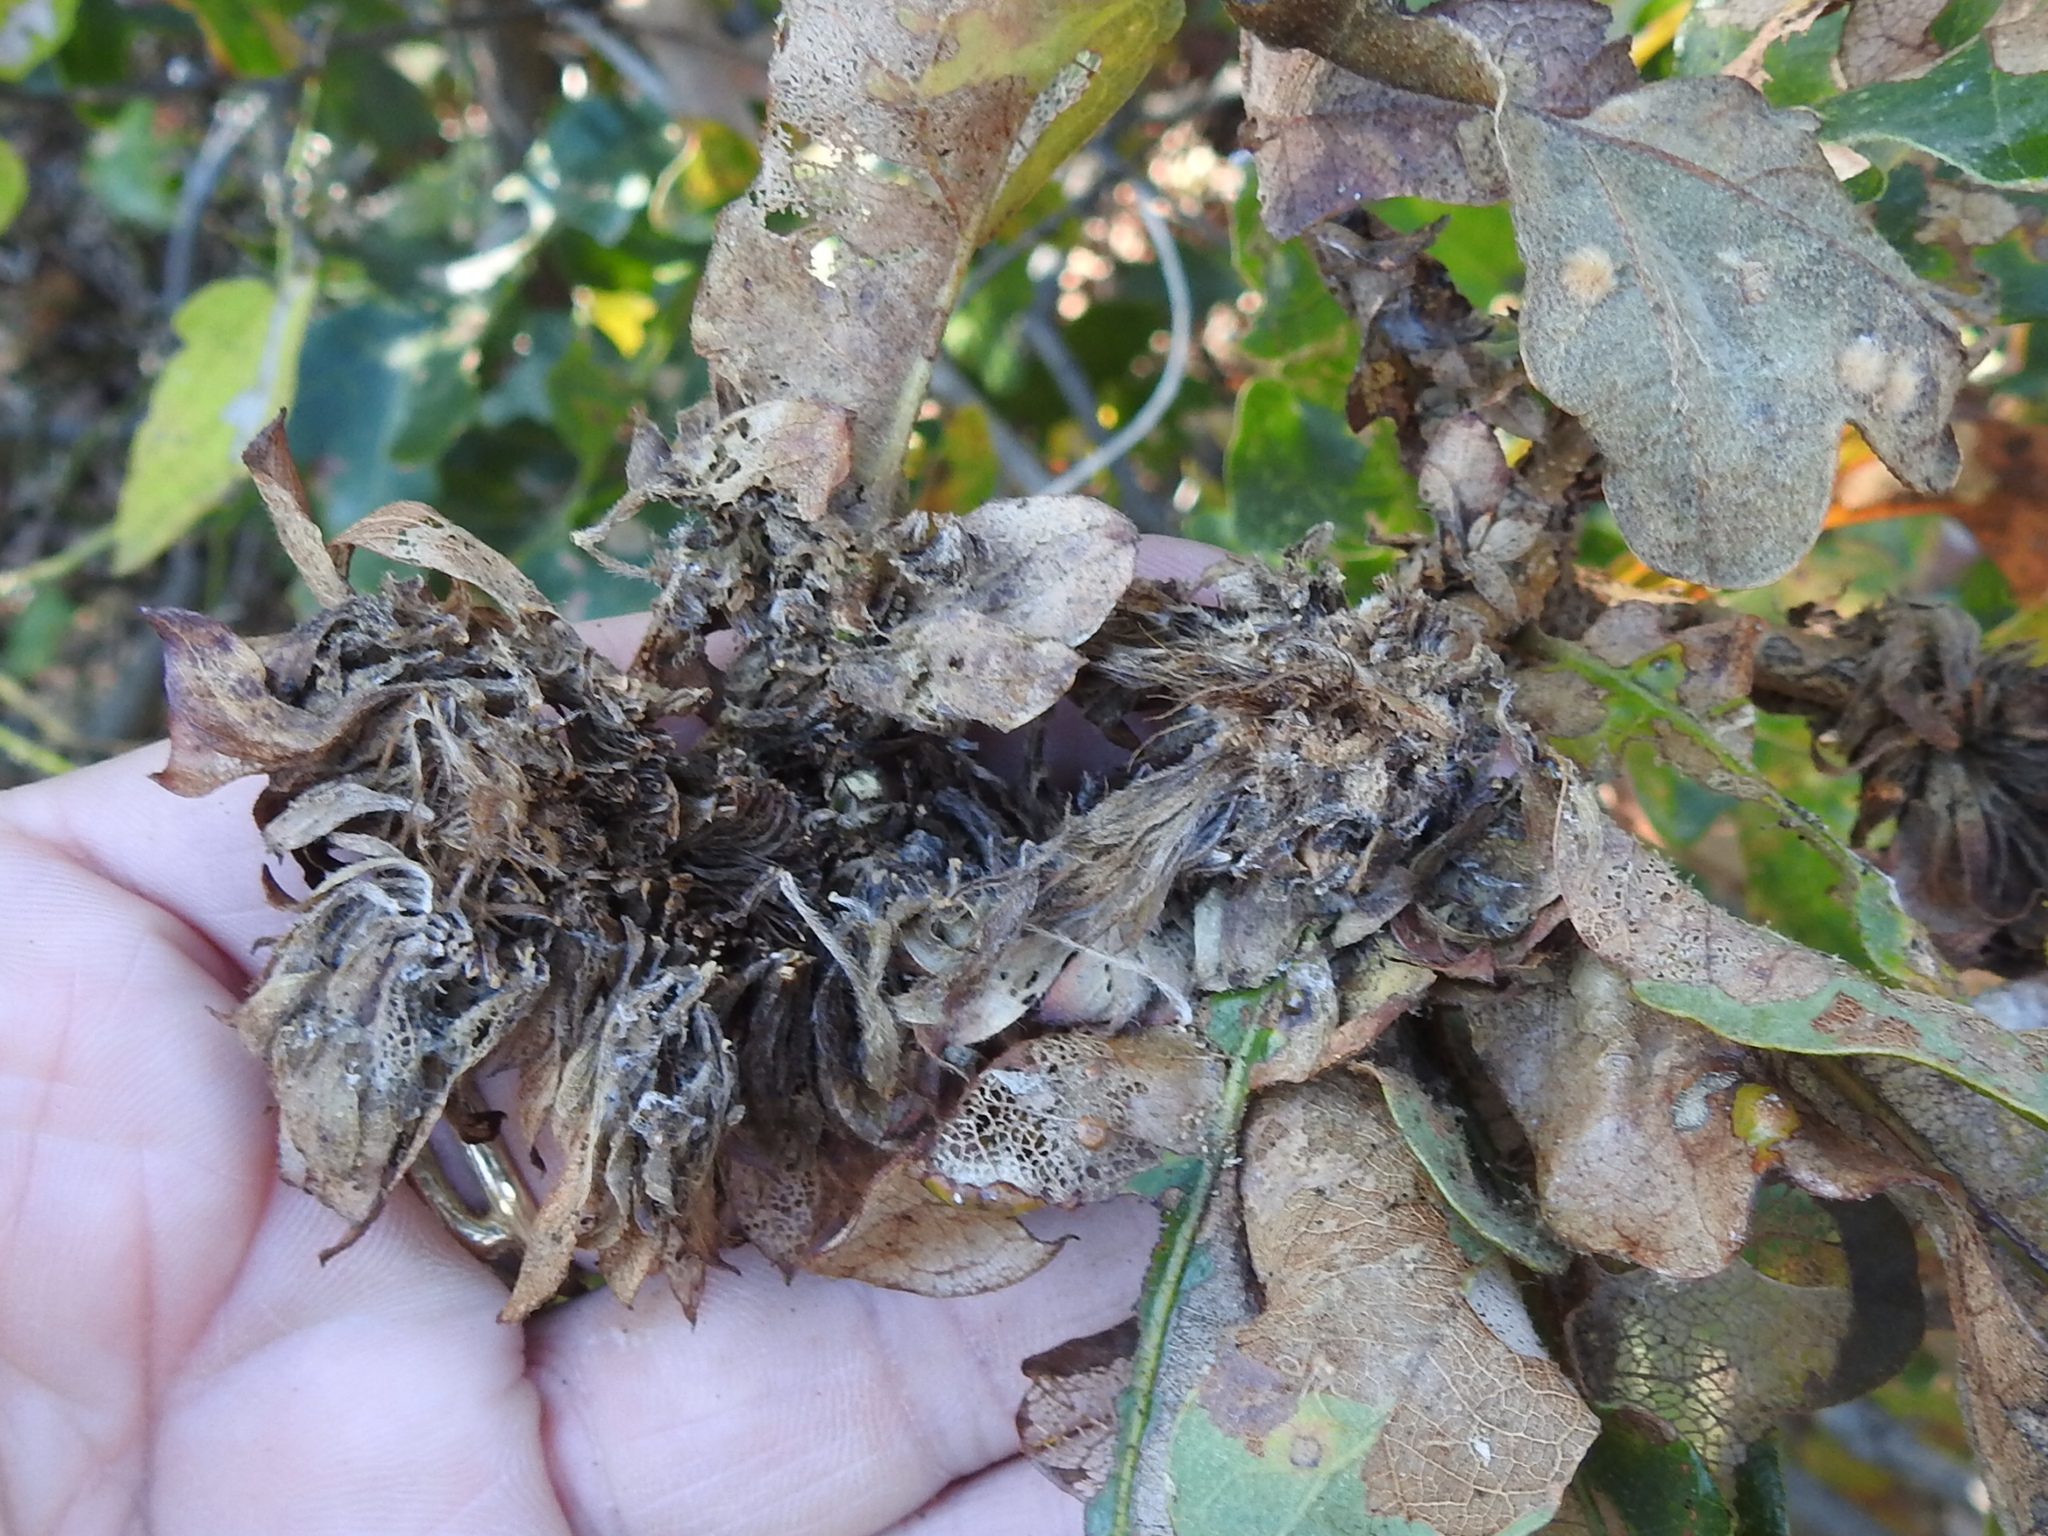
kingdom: Animalia
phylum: Arthropoda
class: Insecta
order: Hymenoptera
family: Cynipidae
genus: Andricus
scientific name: Andricus
